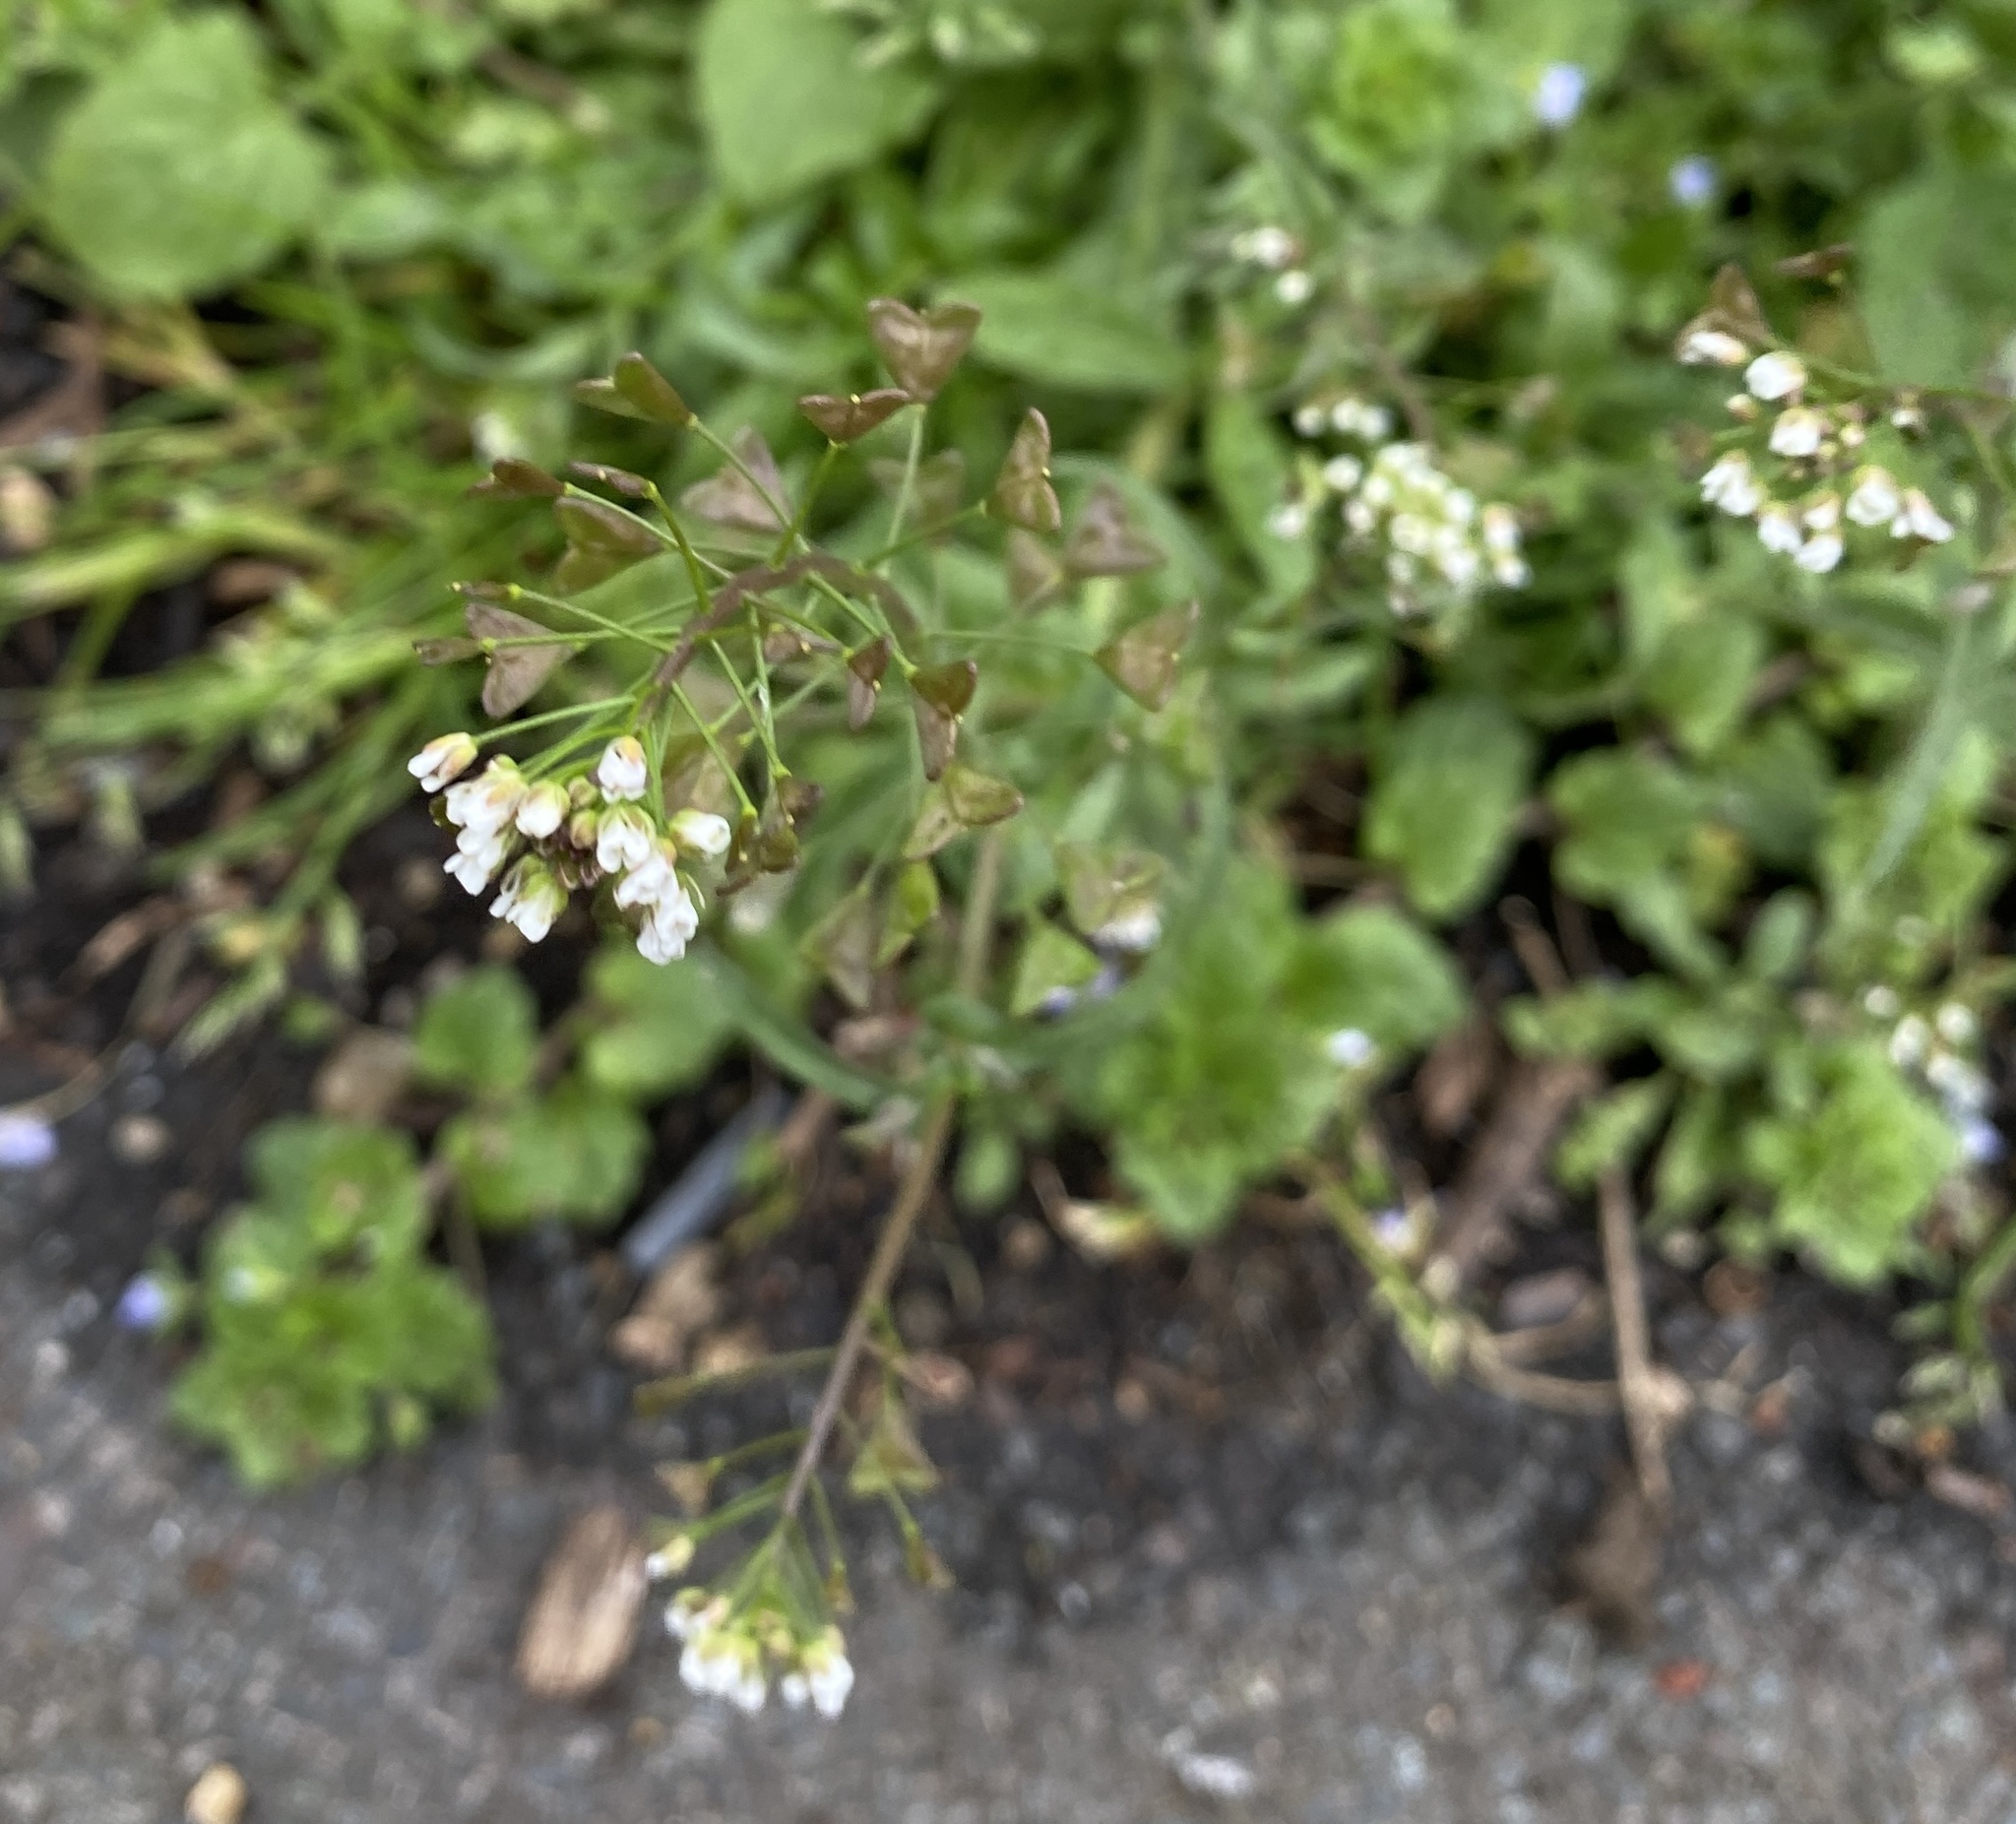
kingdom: Plantae
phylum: Tracheophyta
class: Magnoliopsida
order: Brassicales
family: Brassicaceae
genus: Capsella
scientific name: Capsella bursa-pastoris
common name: Shepherd's purse
